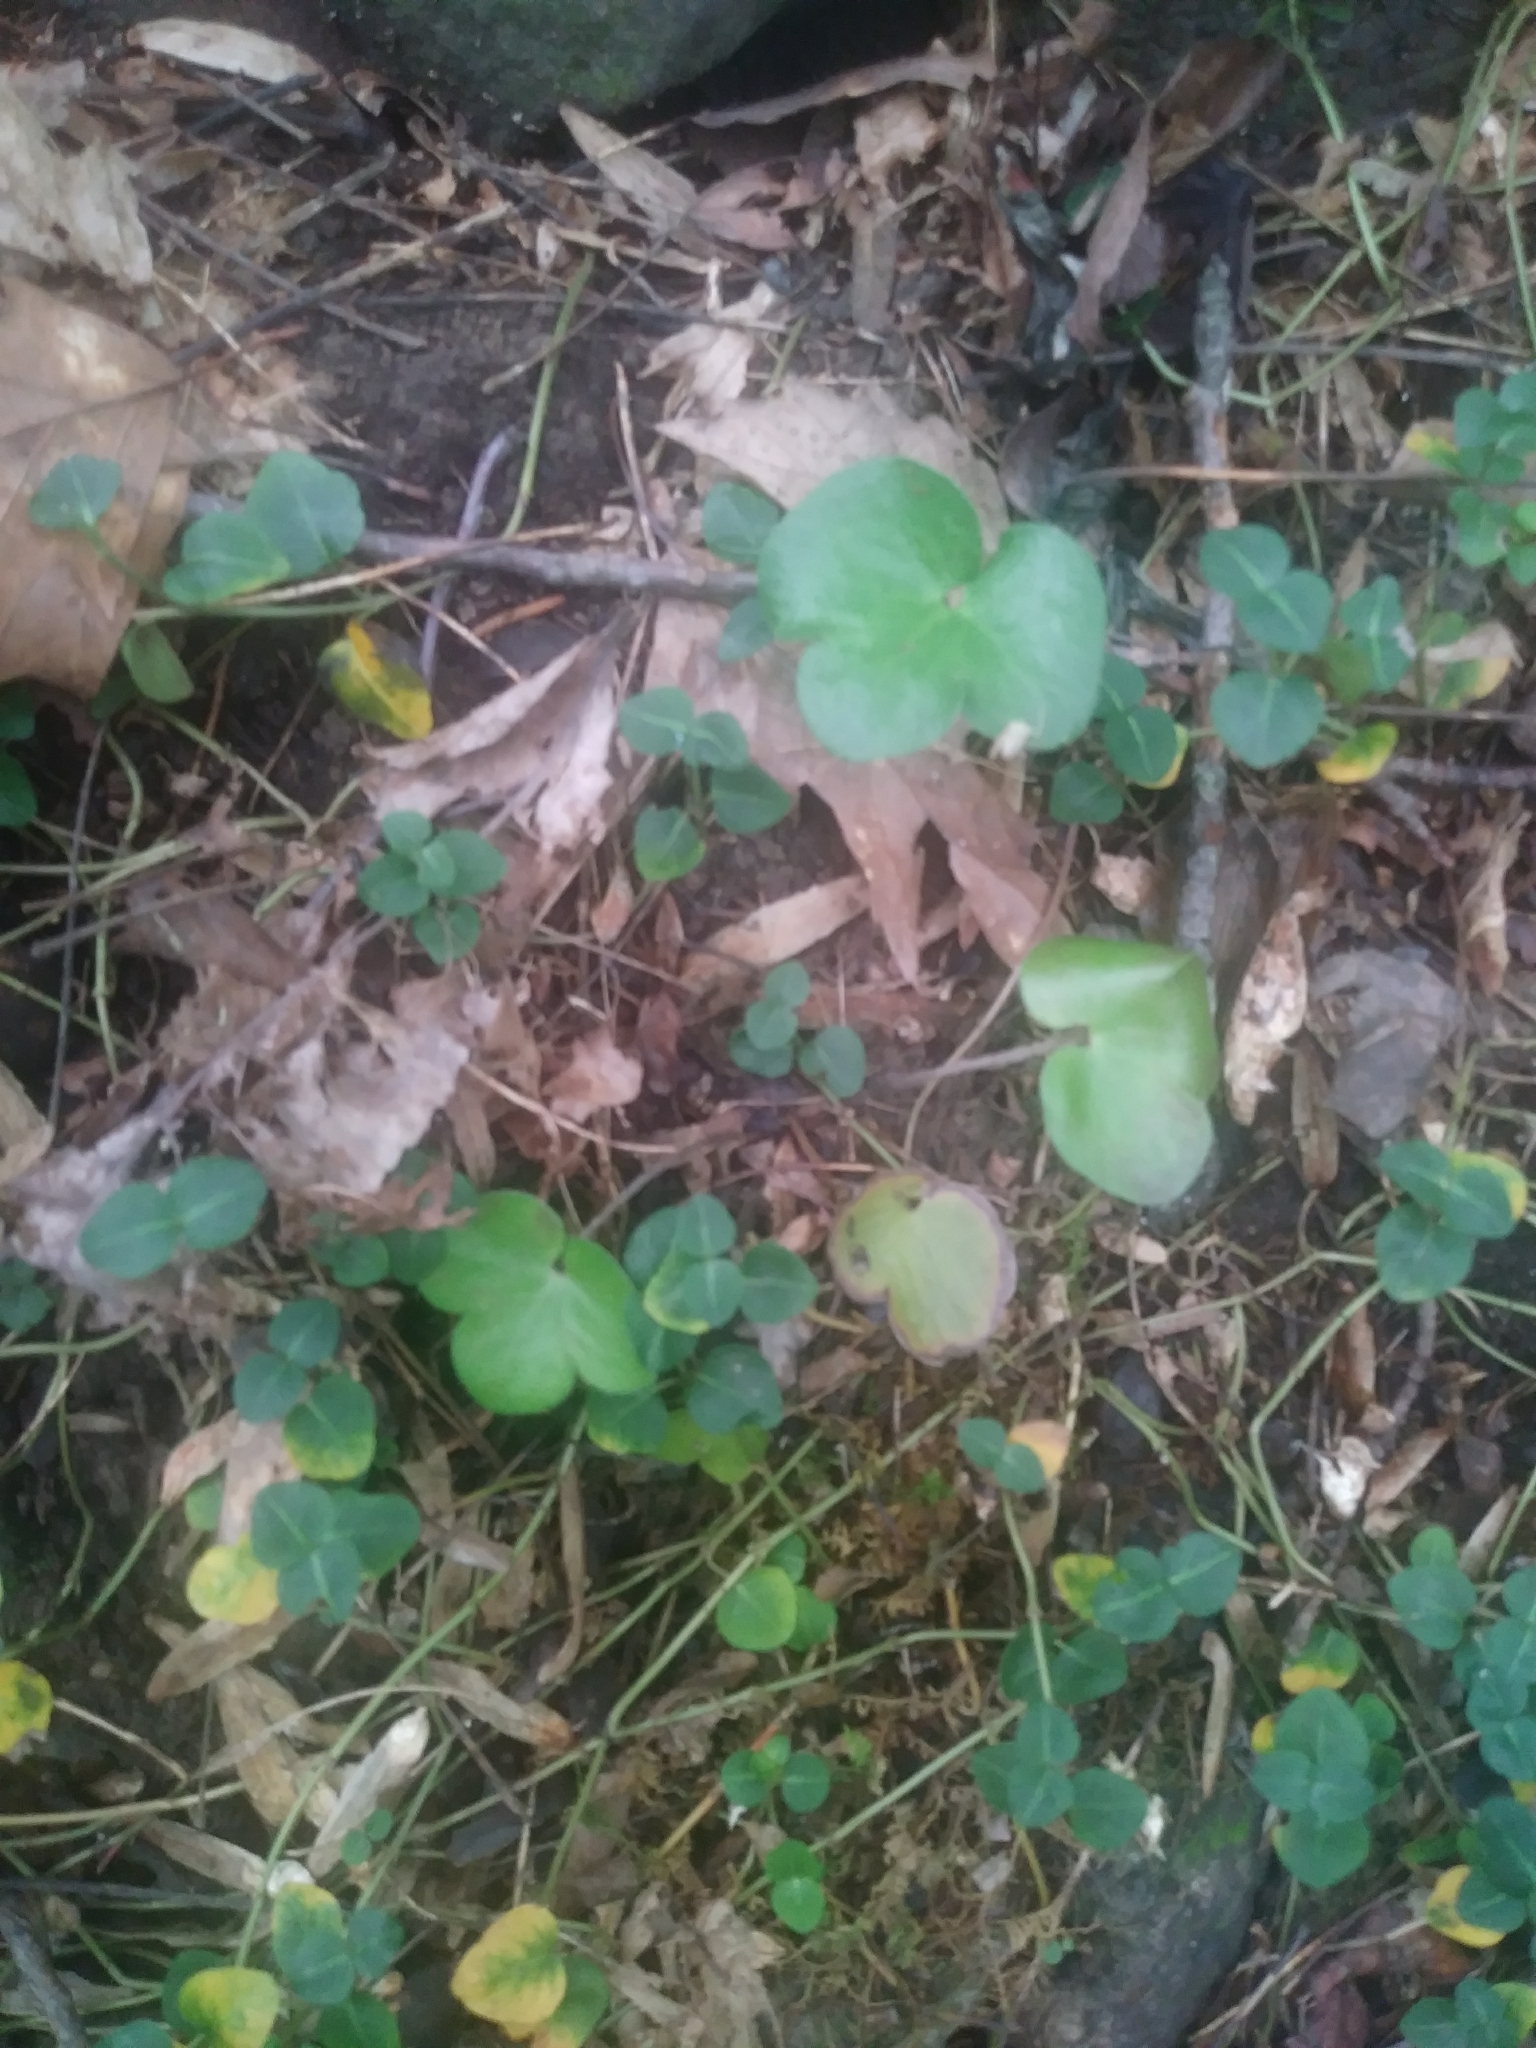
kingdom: Plantae
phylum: Tracheophyta
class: Magnoliopsida
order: Ranunculales
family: Ranunculaceae
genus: Hepatica
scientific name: Hepatica americana
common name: American hepatica
